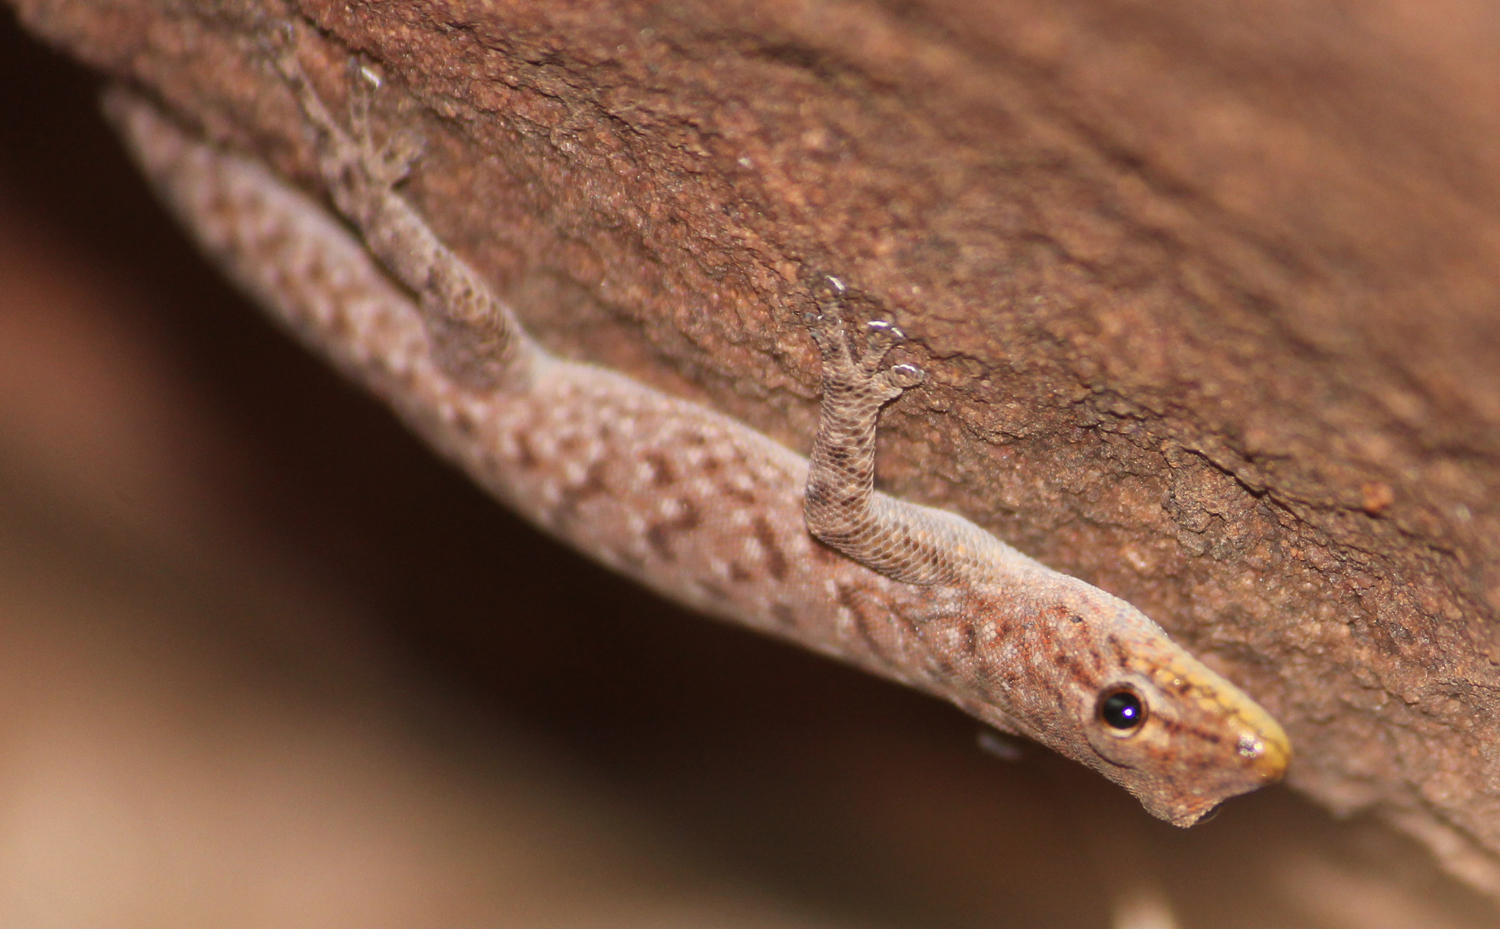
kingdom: Animalia
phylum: Chordata
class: Squamata
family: Gekkonidae
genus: Lygodactylus
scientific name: Lygodactylus soutpansbergensis
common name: Soutpansberg dwarf gecko
